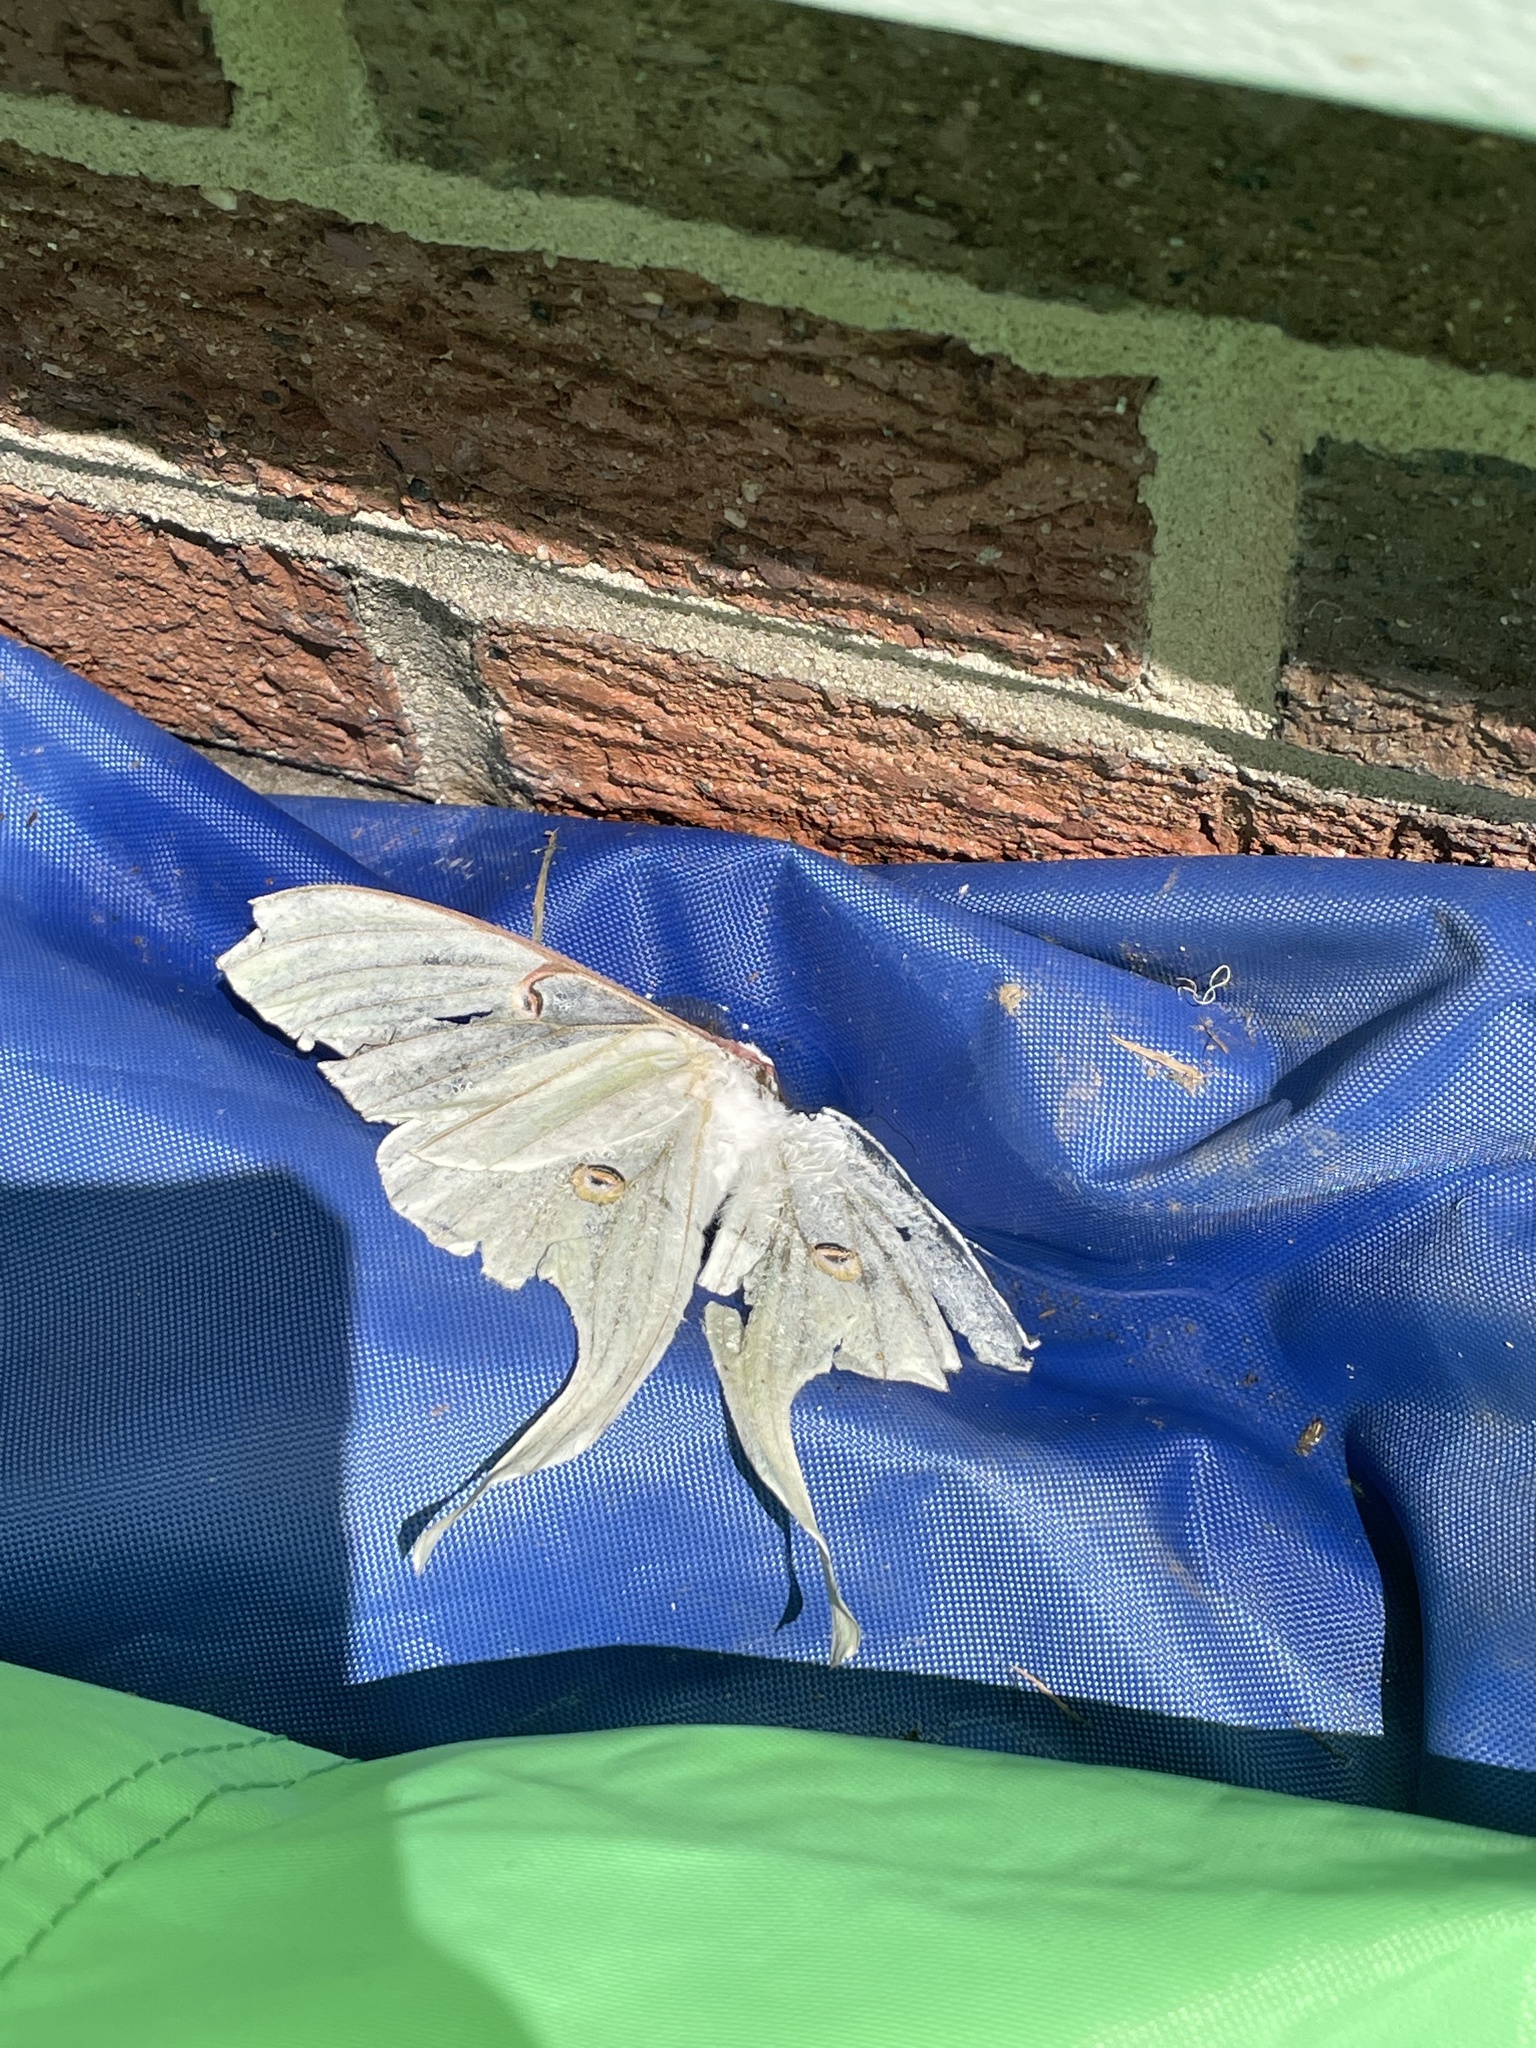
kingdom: Animalia
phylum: Arthropoda
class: Insecta
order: Lepidoptera
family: Saturniidae
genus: Actias
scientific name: Actias luna
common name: Luna moth
